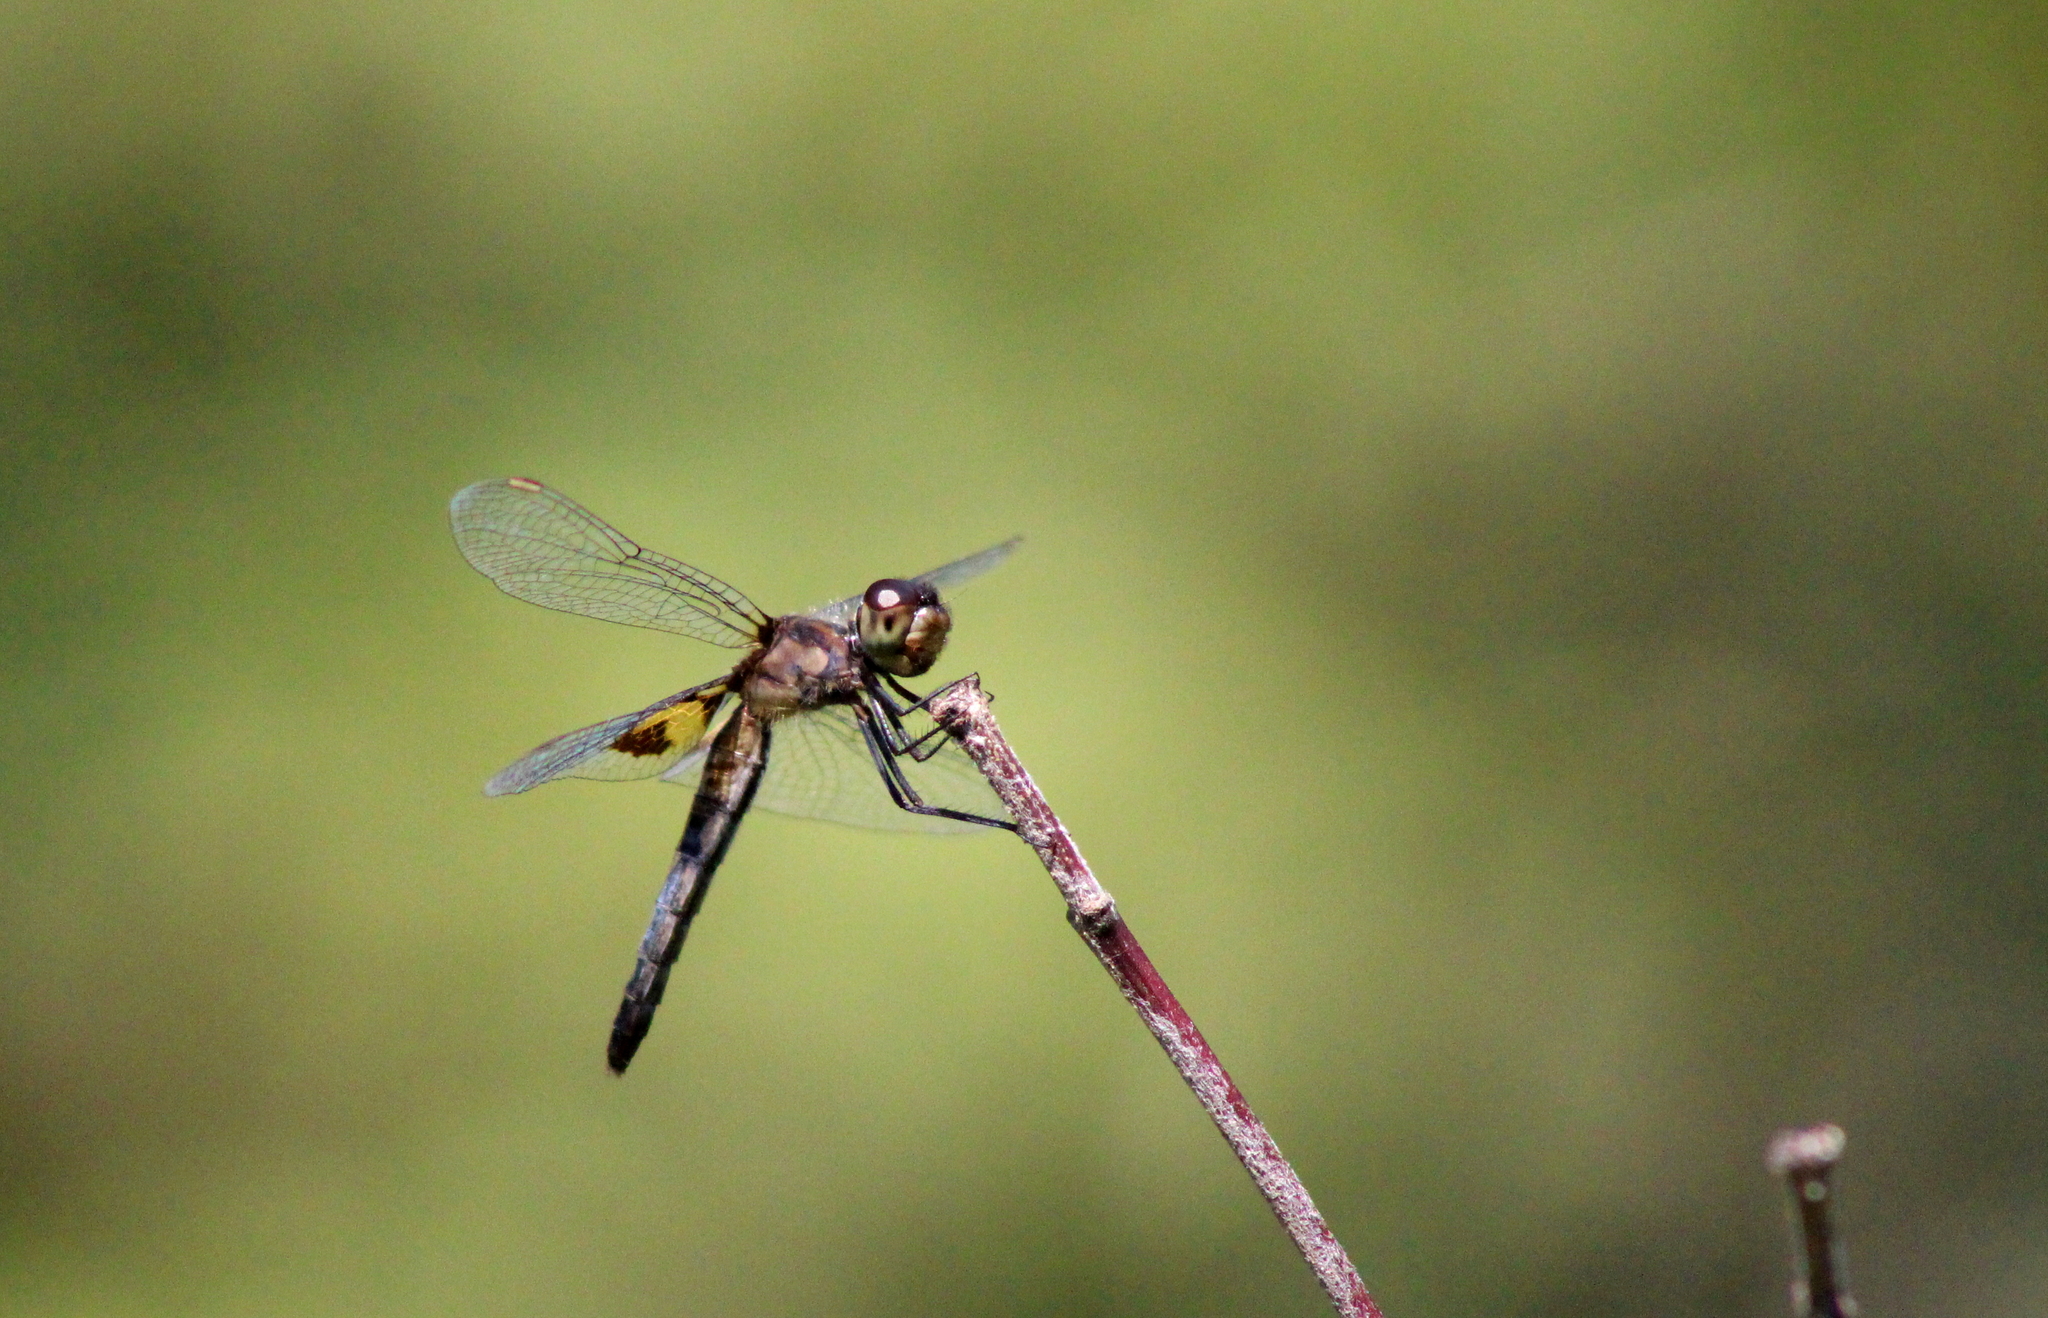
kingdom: Animalia
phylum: Arthropoda
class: Insecta
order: Odonata
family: Libellulidae
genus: Celithemis
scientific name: Celithemis martha
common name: Martha's pennant
